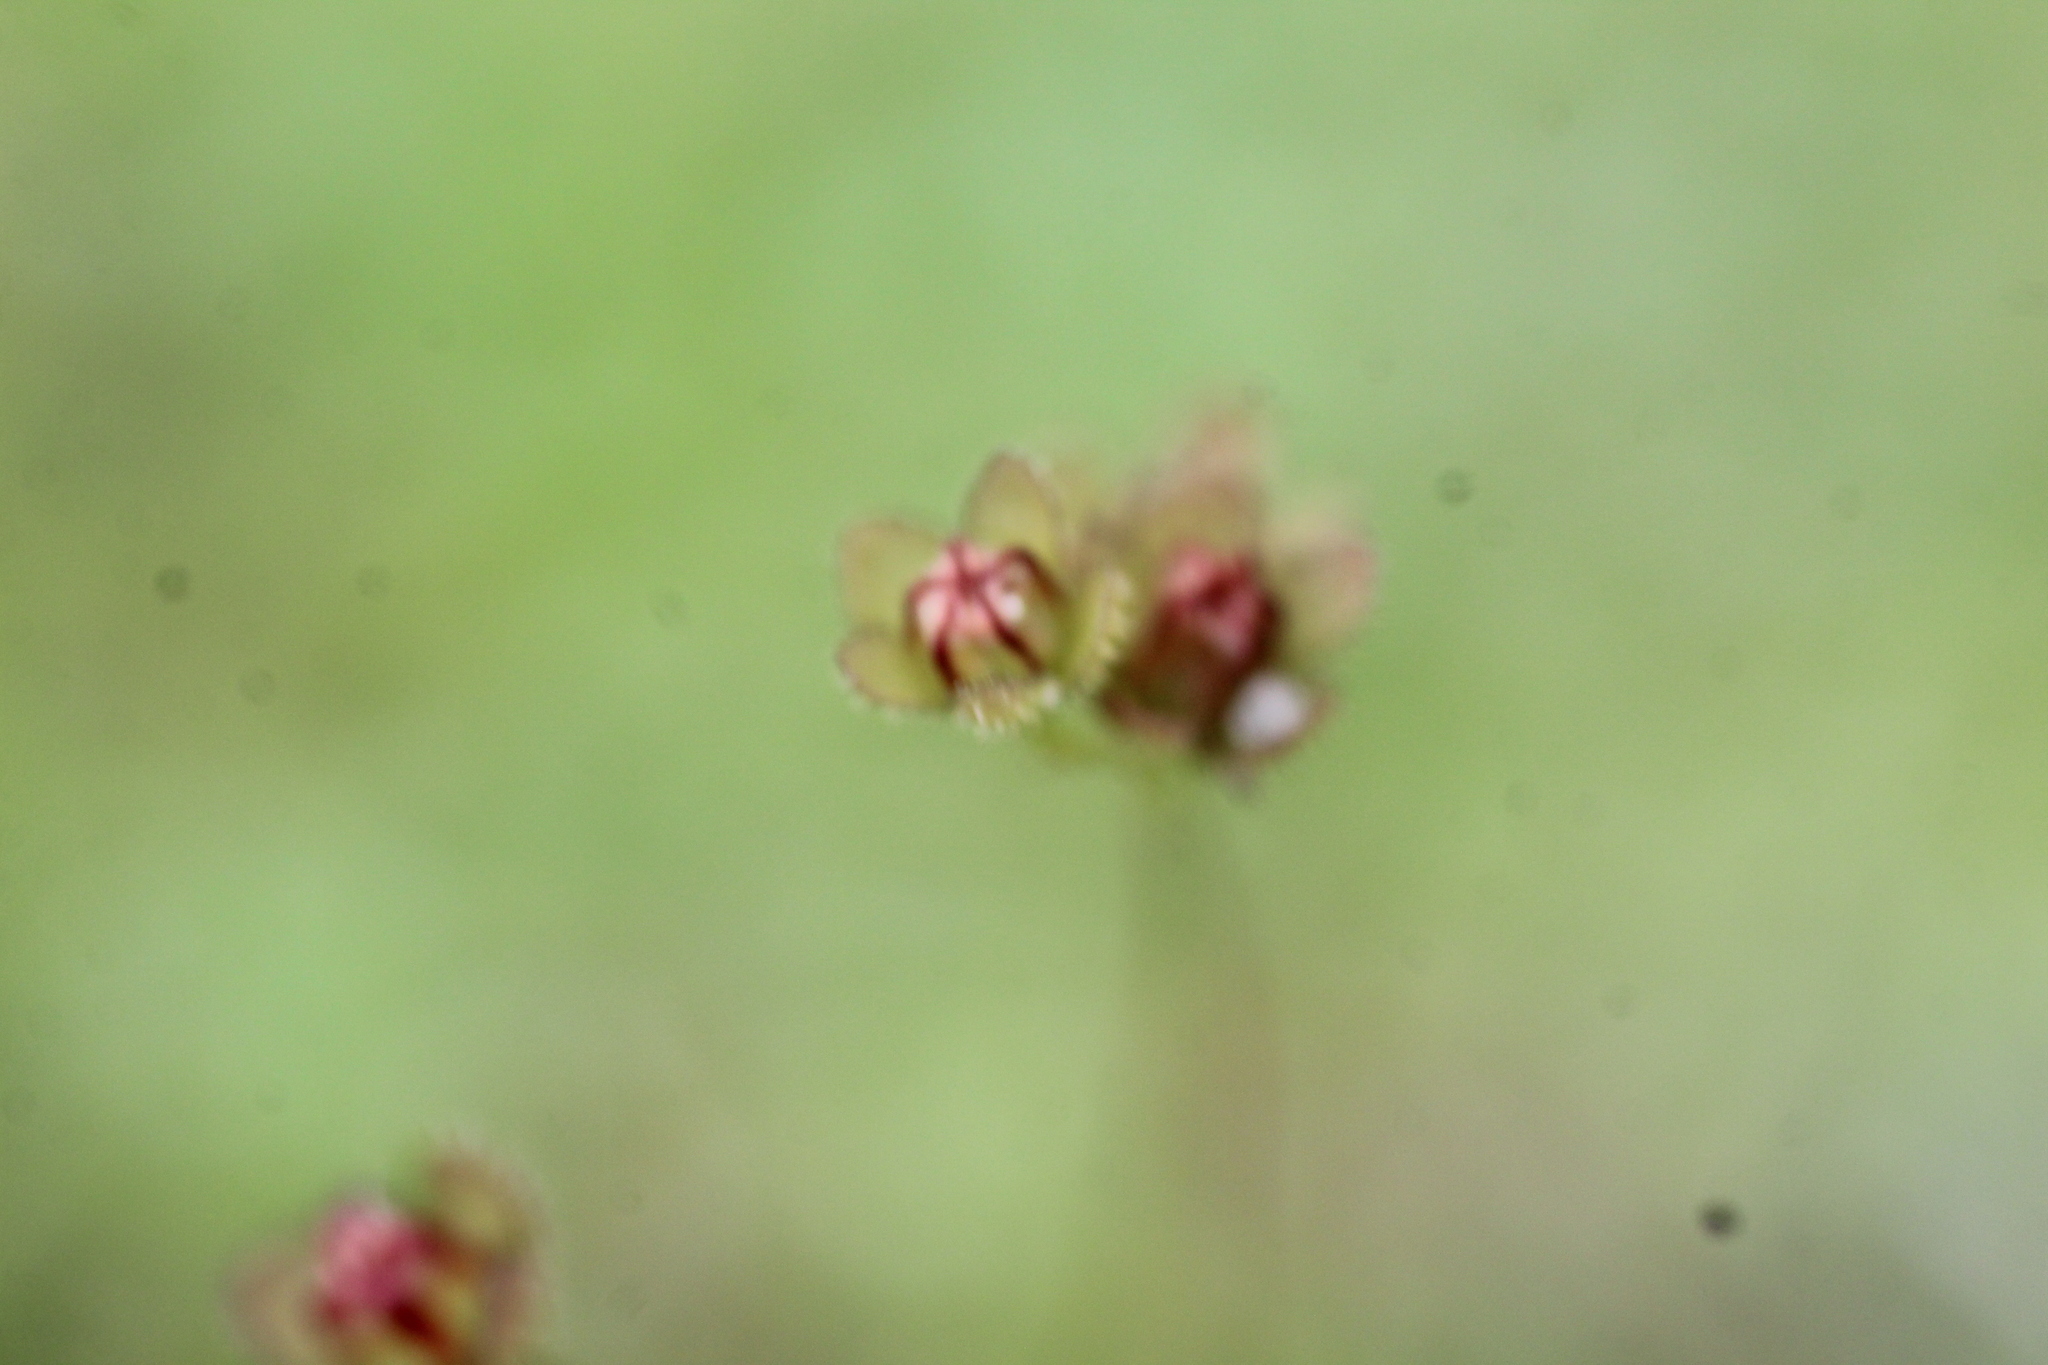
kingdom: Plantae
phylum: Tracheophyta
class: Magnoliopsida
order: Caryophyllales
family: Droseraceae
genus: Drosera
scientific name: Drosera pulchella
